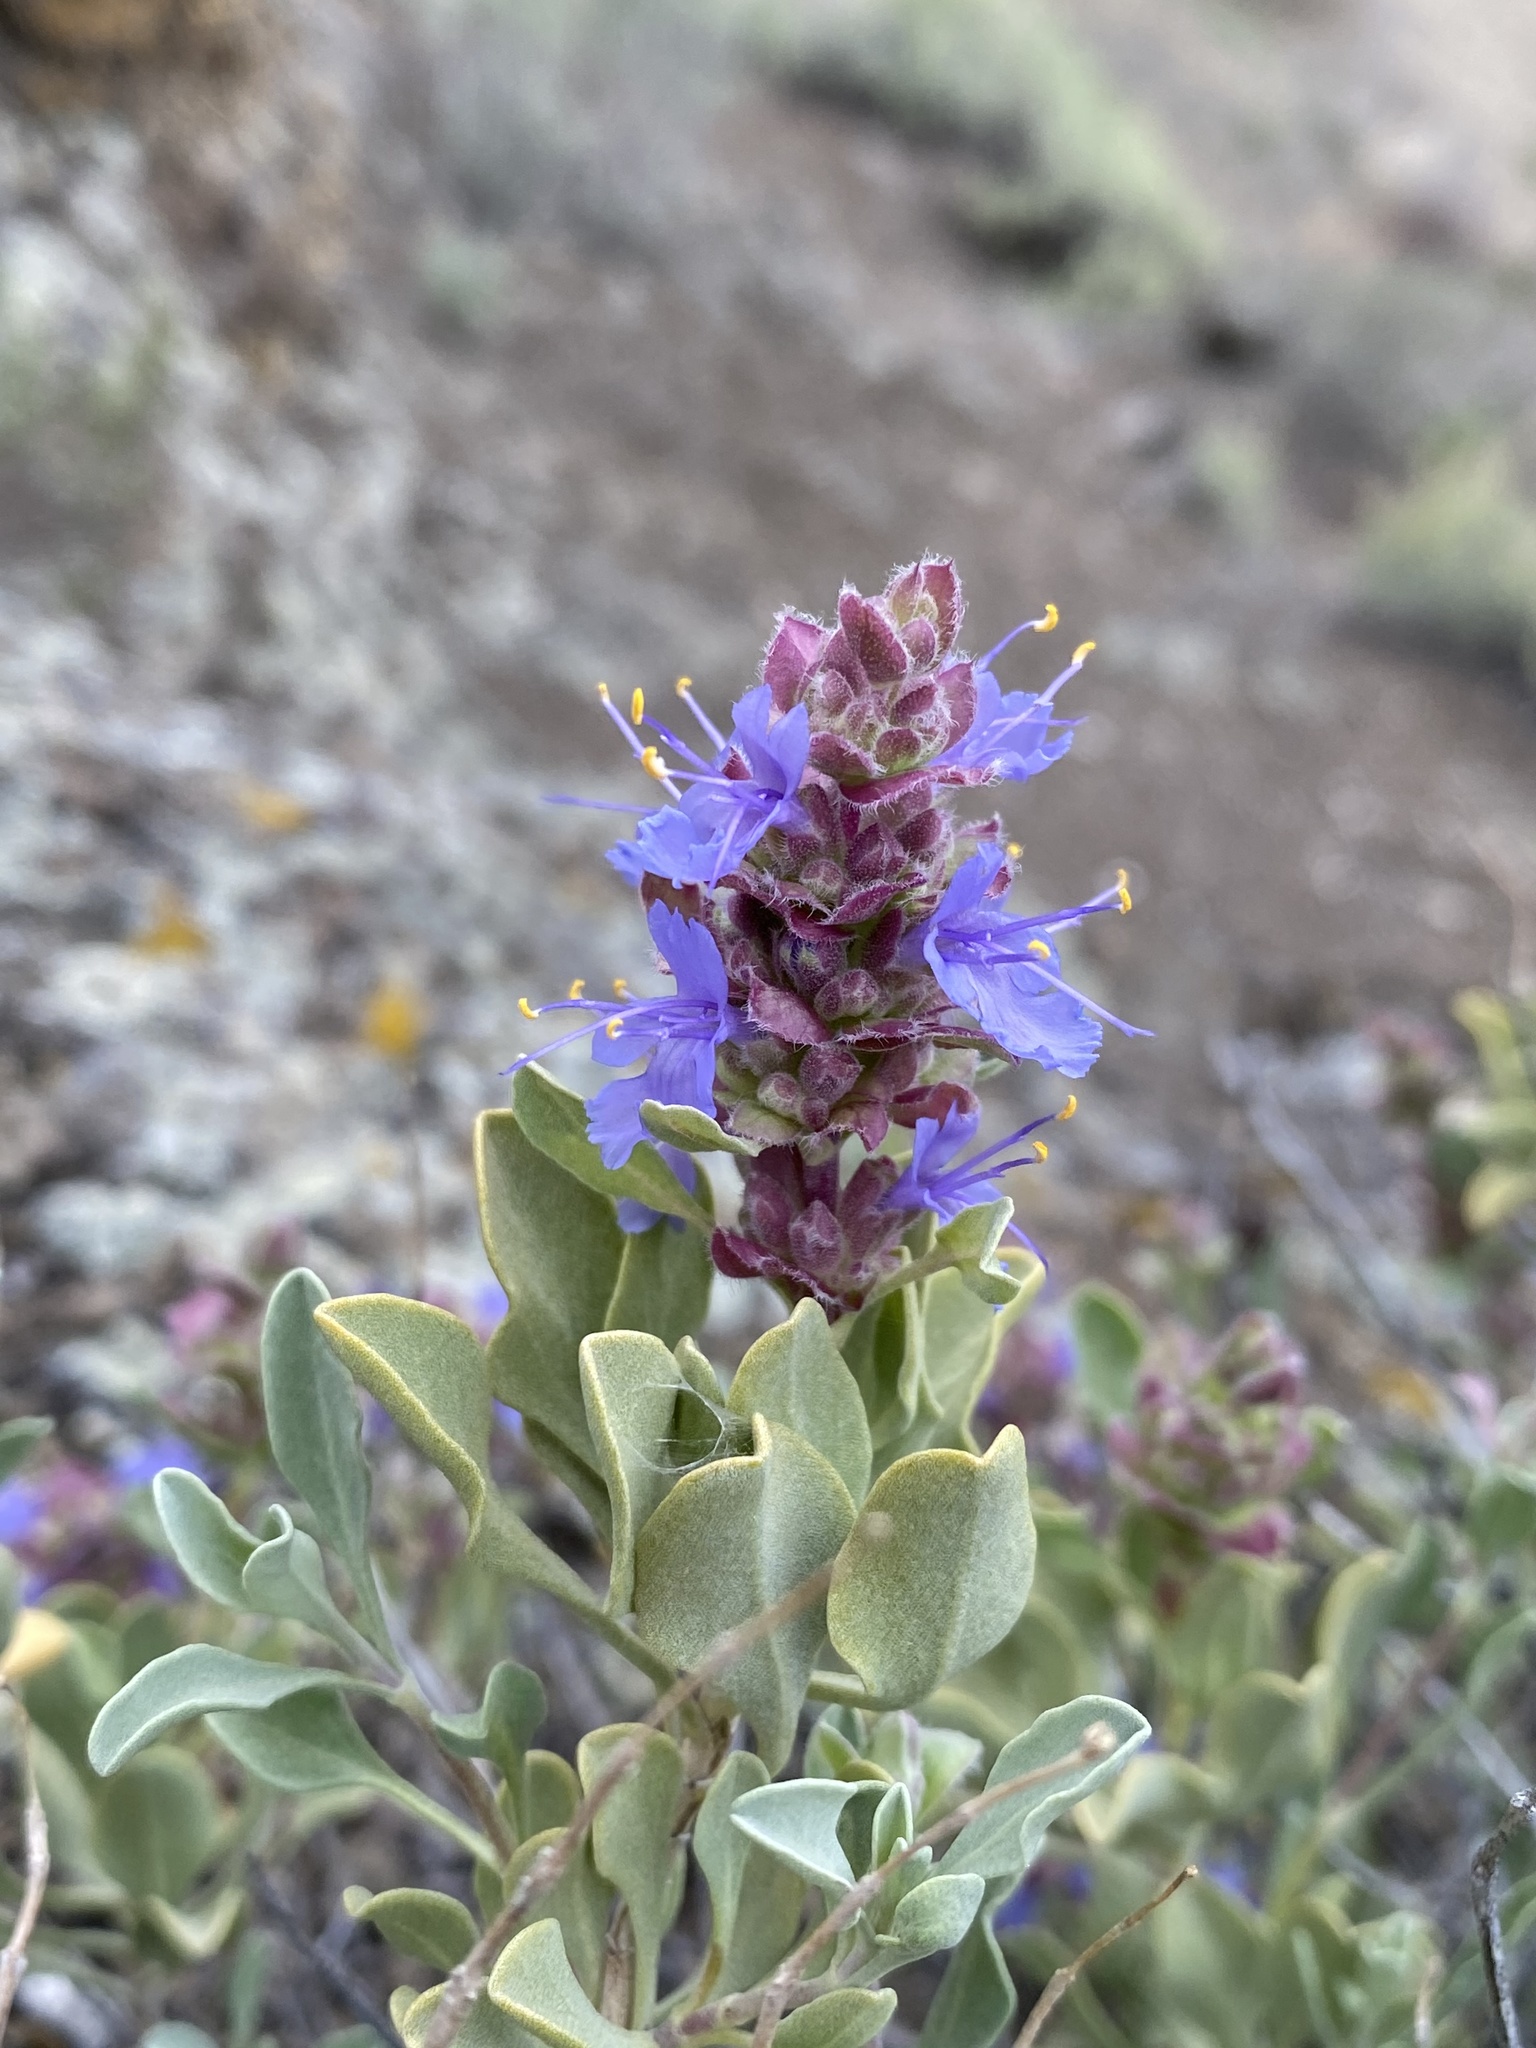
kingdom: Plantae
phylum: Tracheophyta
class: Magnoliopsida
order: Lamiales
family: Lamiaceae
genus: Salvia
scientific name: Salvia dorrii
